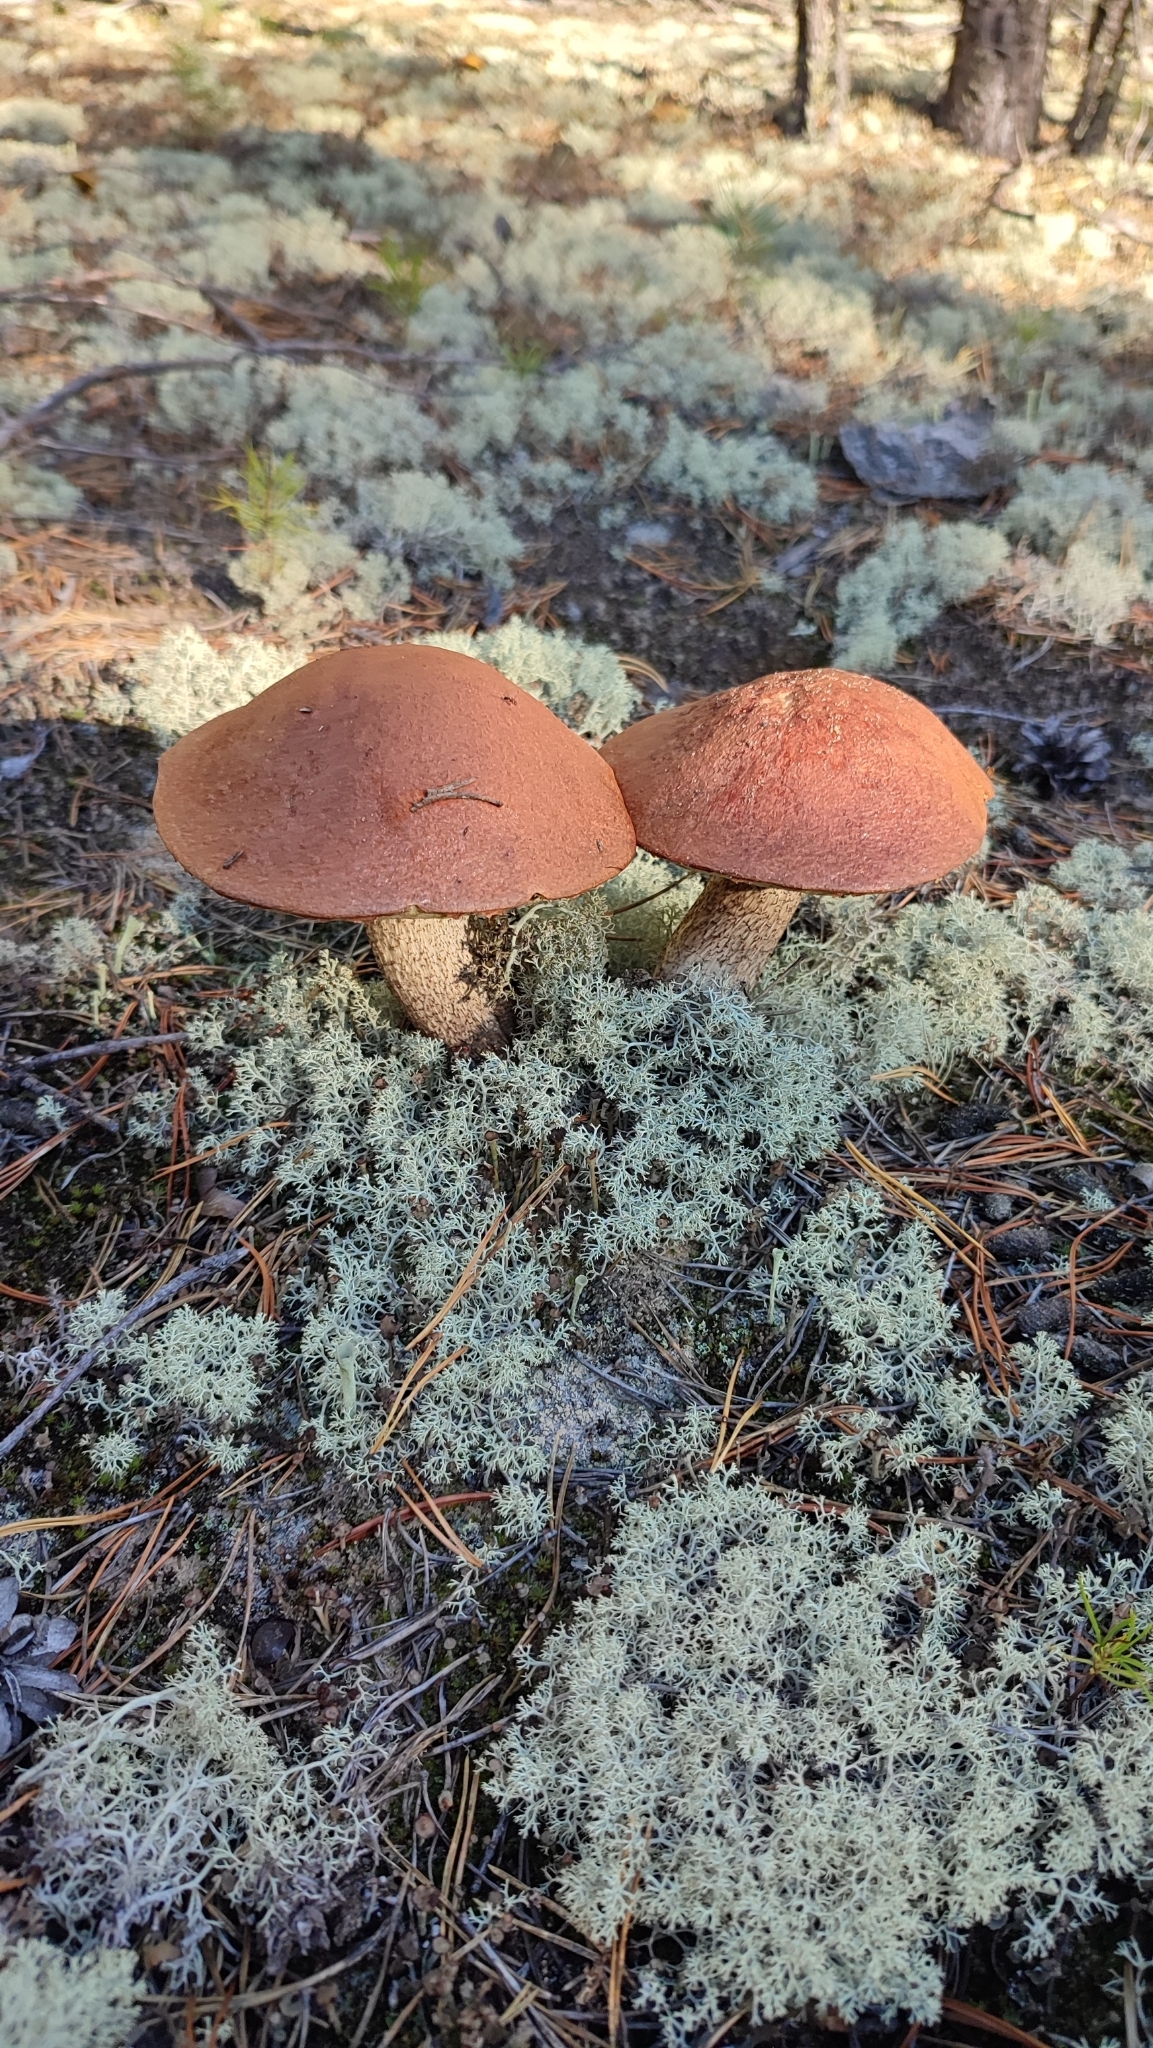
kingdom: Fungi
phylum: Basidiomycota
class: Agaricomycetes
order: Boletales
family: Boletaceae
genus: Leccinum
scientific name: Leccinum aurantiacum
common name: Orange bolete
